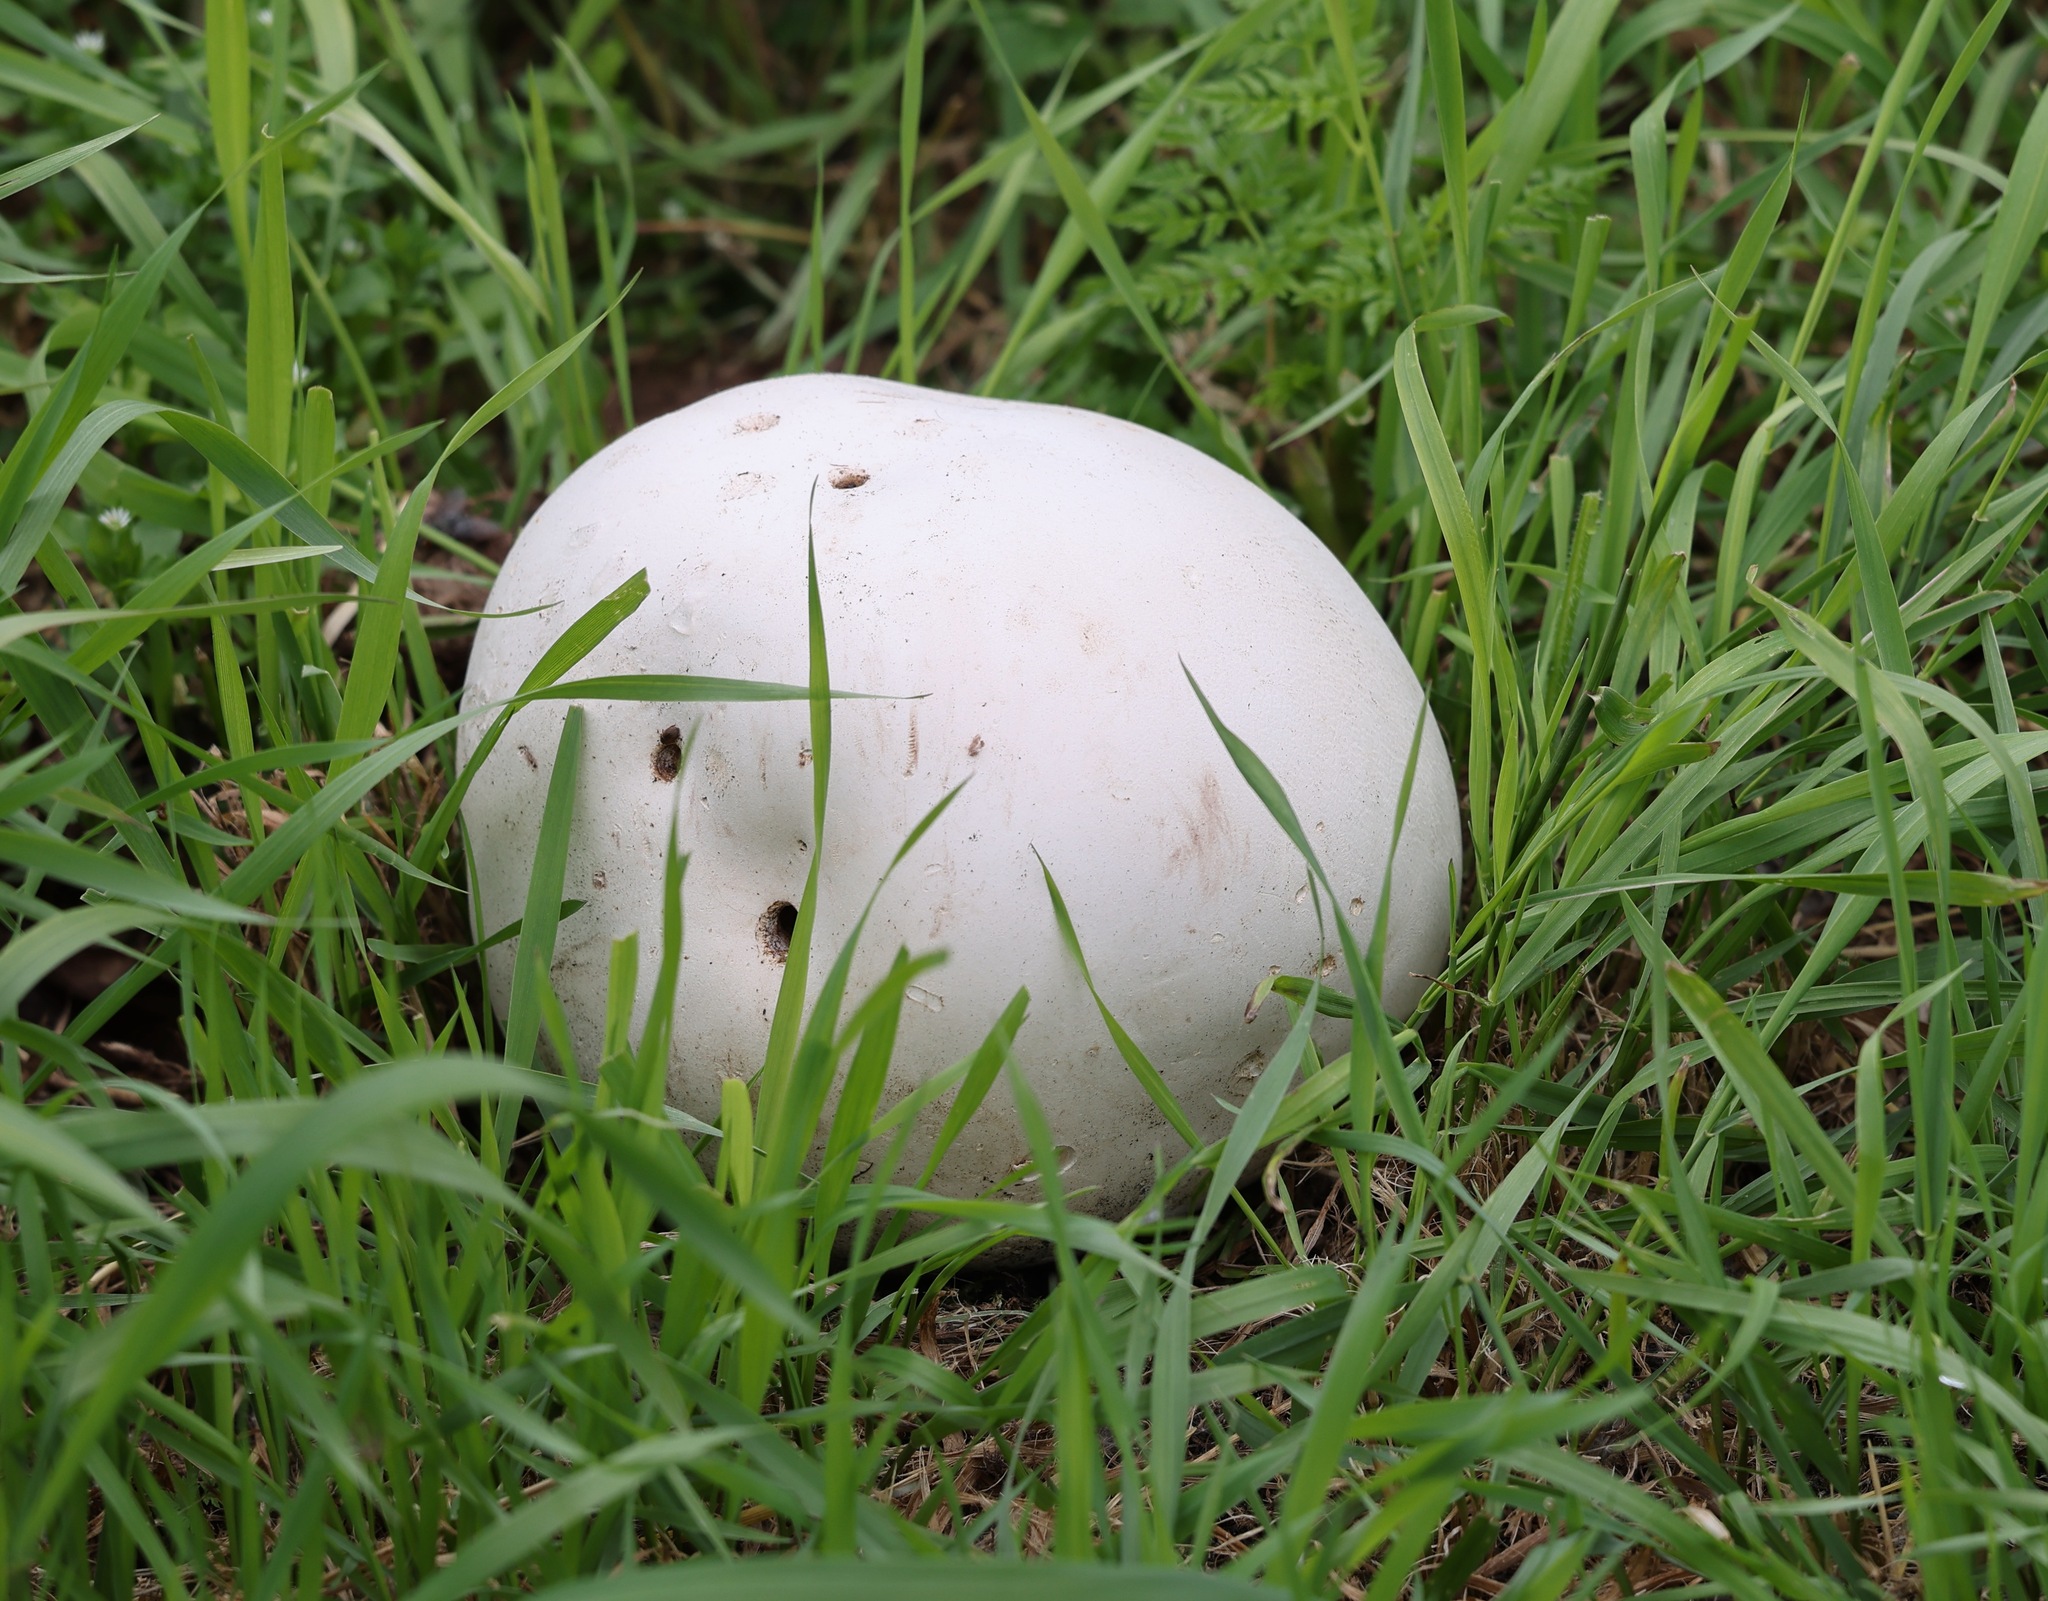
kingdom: Fungi
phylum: Basidiomycota
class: Agaricomycetes
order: Agaricales
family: Lycoperdaceae
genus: Calvatia
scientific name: Calvatia gigantea
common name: Giant puffball
